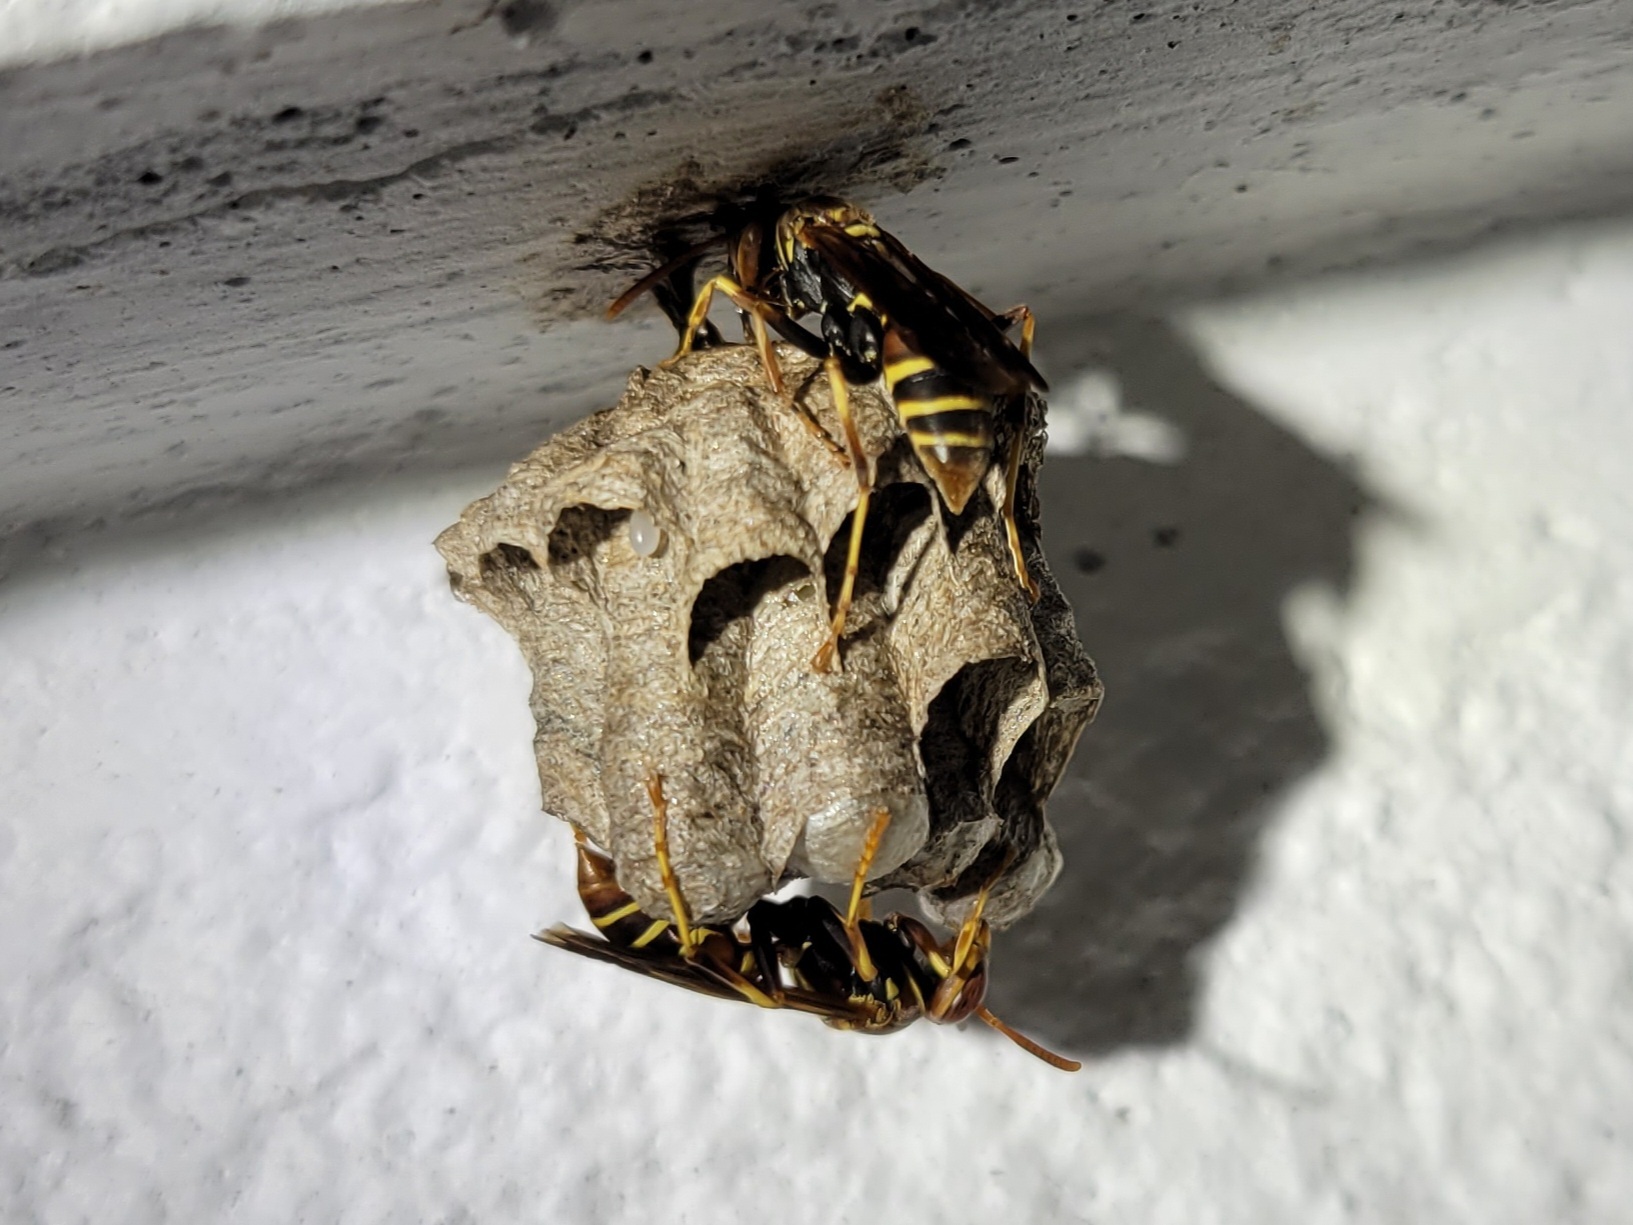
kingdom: Animalia
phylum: Arthropoda
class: Insecta
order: Hymenoptera
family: Eumenidae
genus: Polistes
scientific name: Polistes dorsalis
